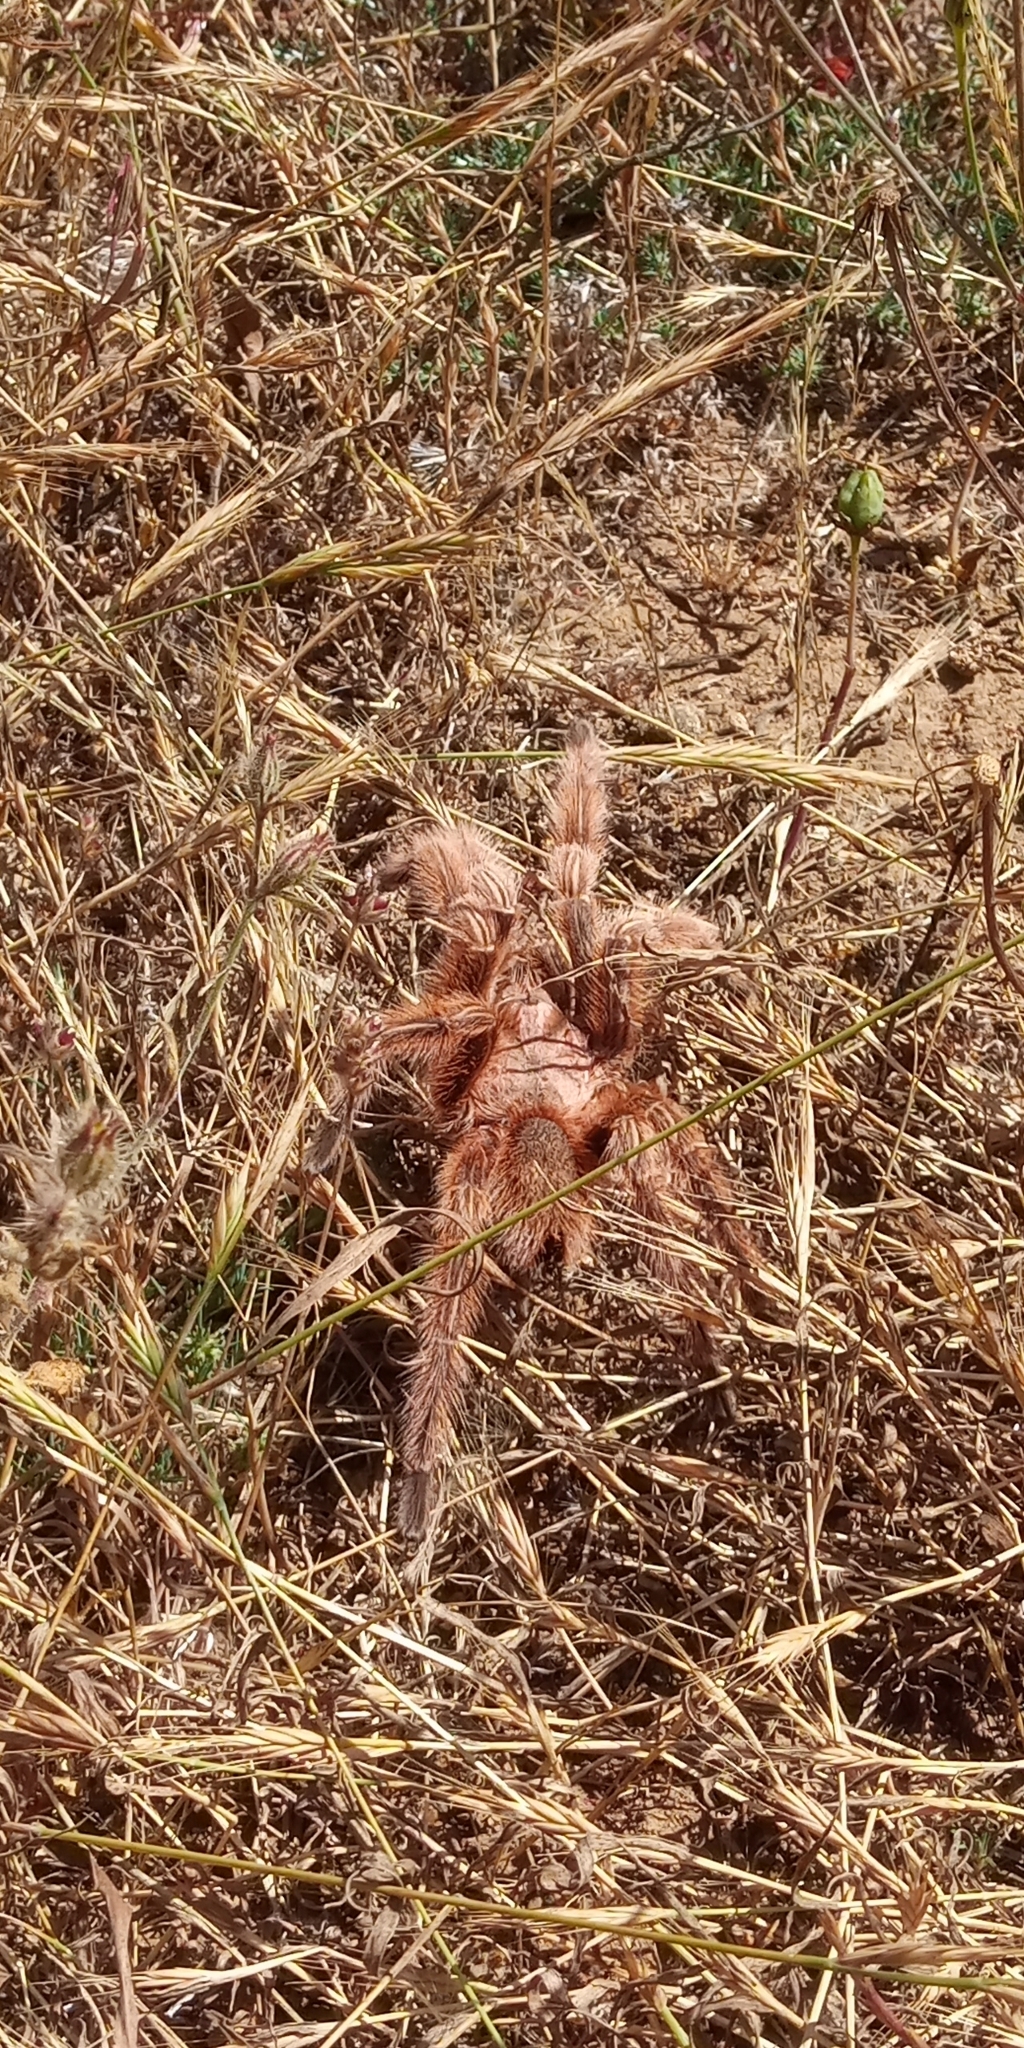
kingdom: Animalia
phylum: Arthropoda
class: Arachnida
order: Araneae
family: Theraphosidae
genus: Grammostola
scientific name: Grammostola rosea
